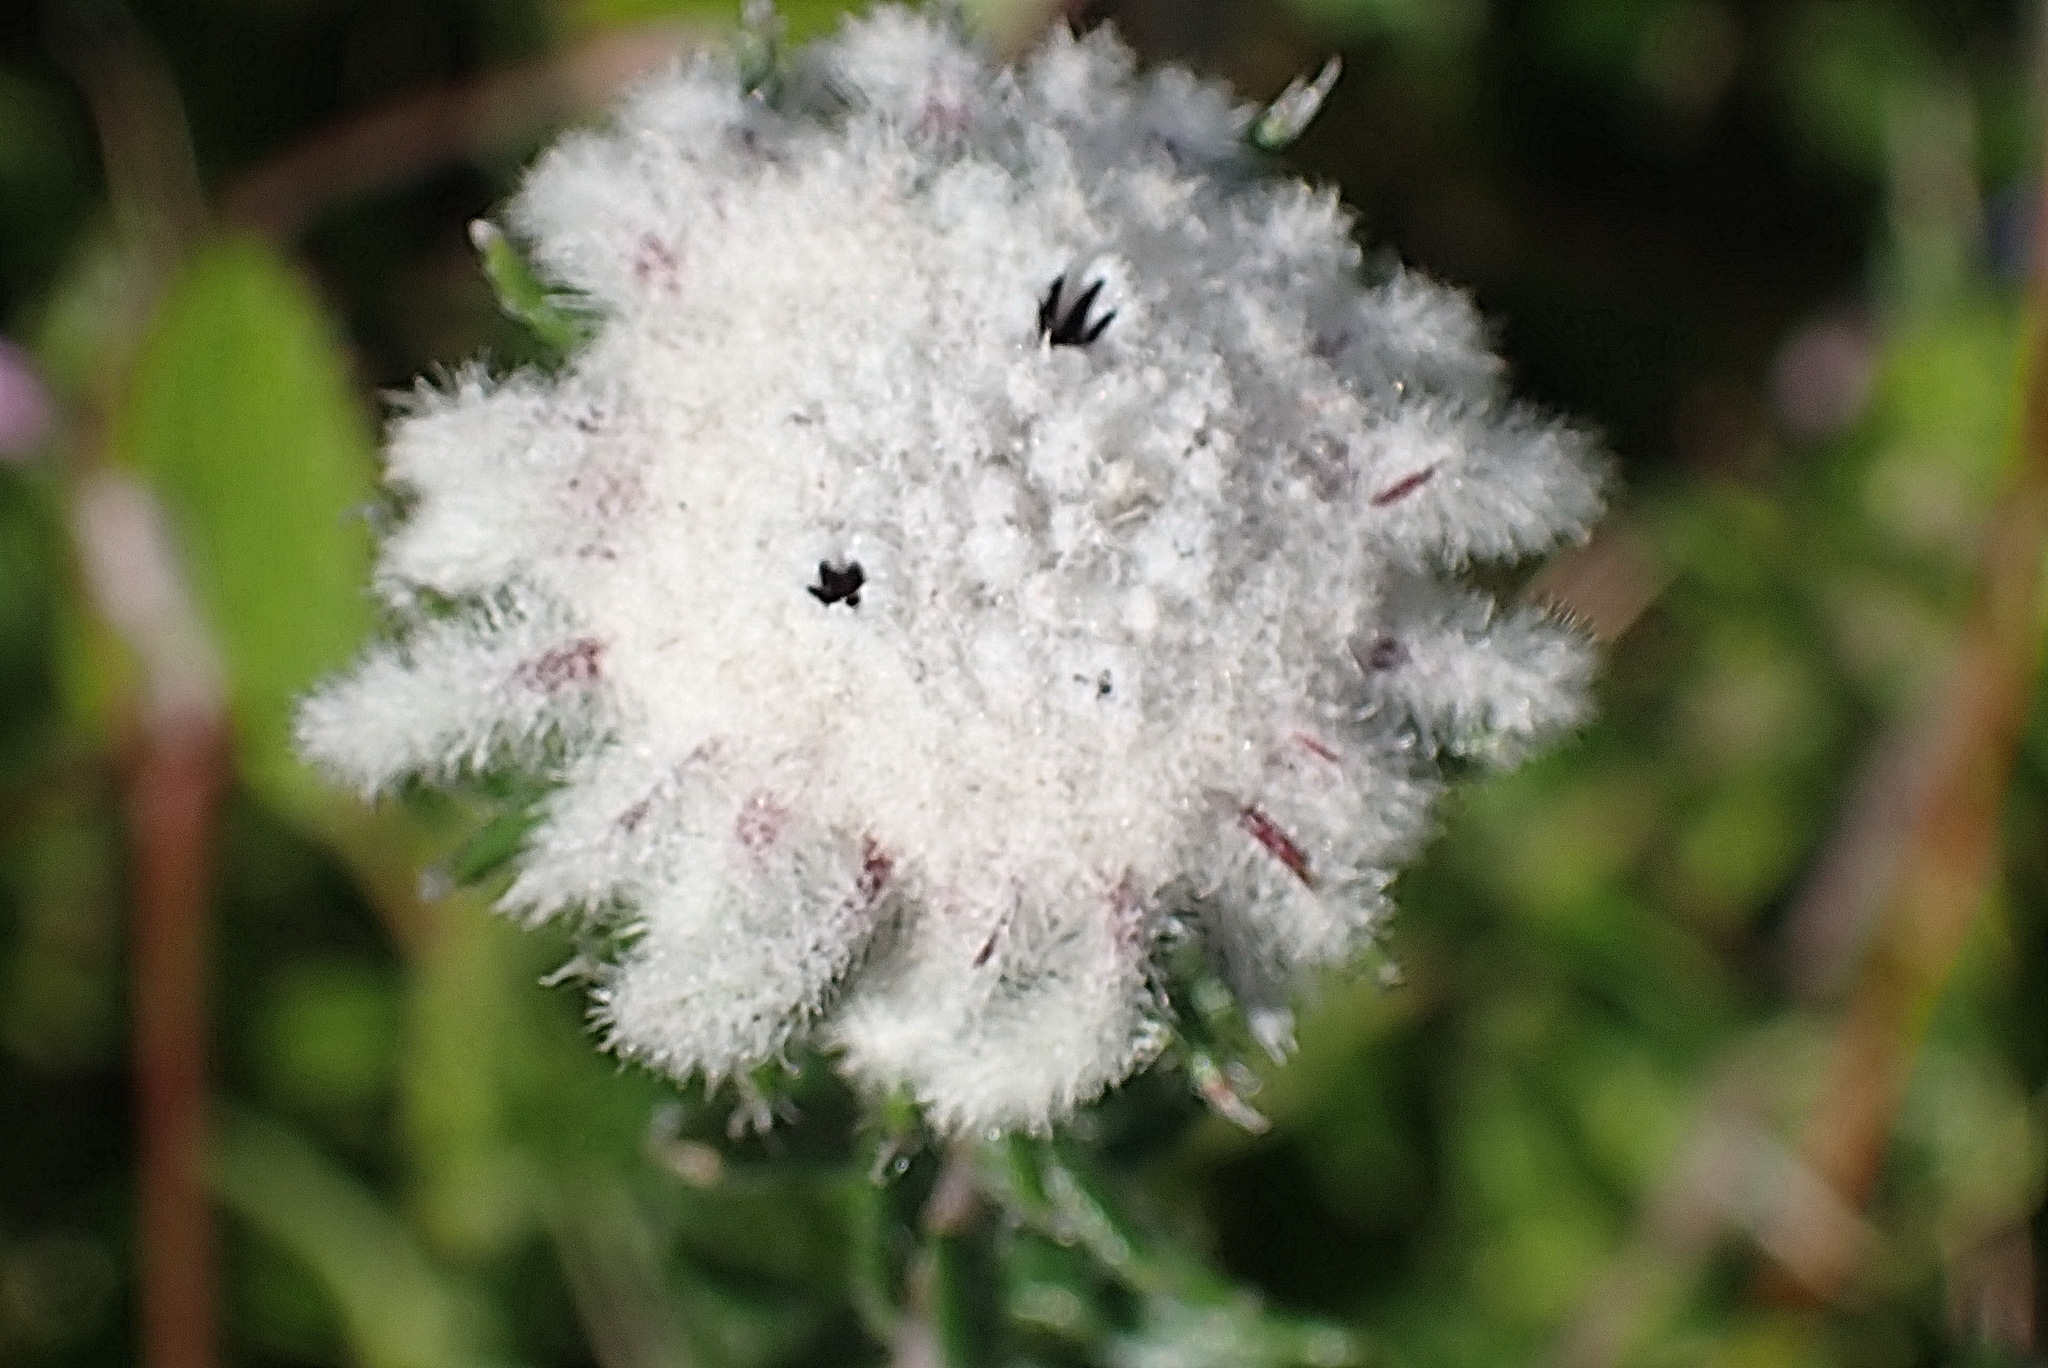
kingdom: Plantae
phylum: Tracheophyta
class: Magnoliopsida
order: Rosales
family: Rhamnaceae
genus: Phylica
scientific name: Phylica curvifolia
